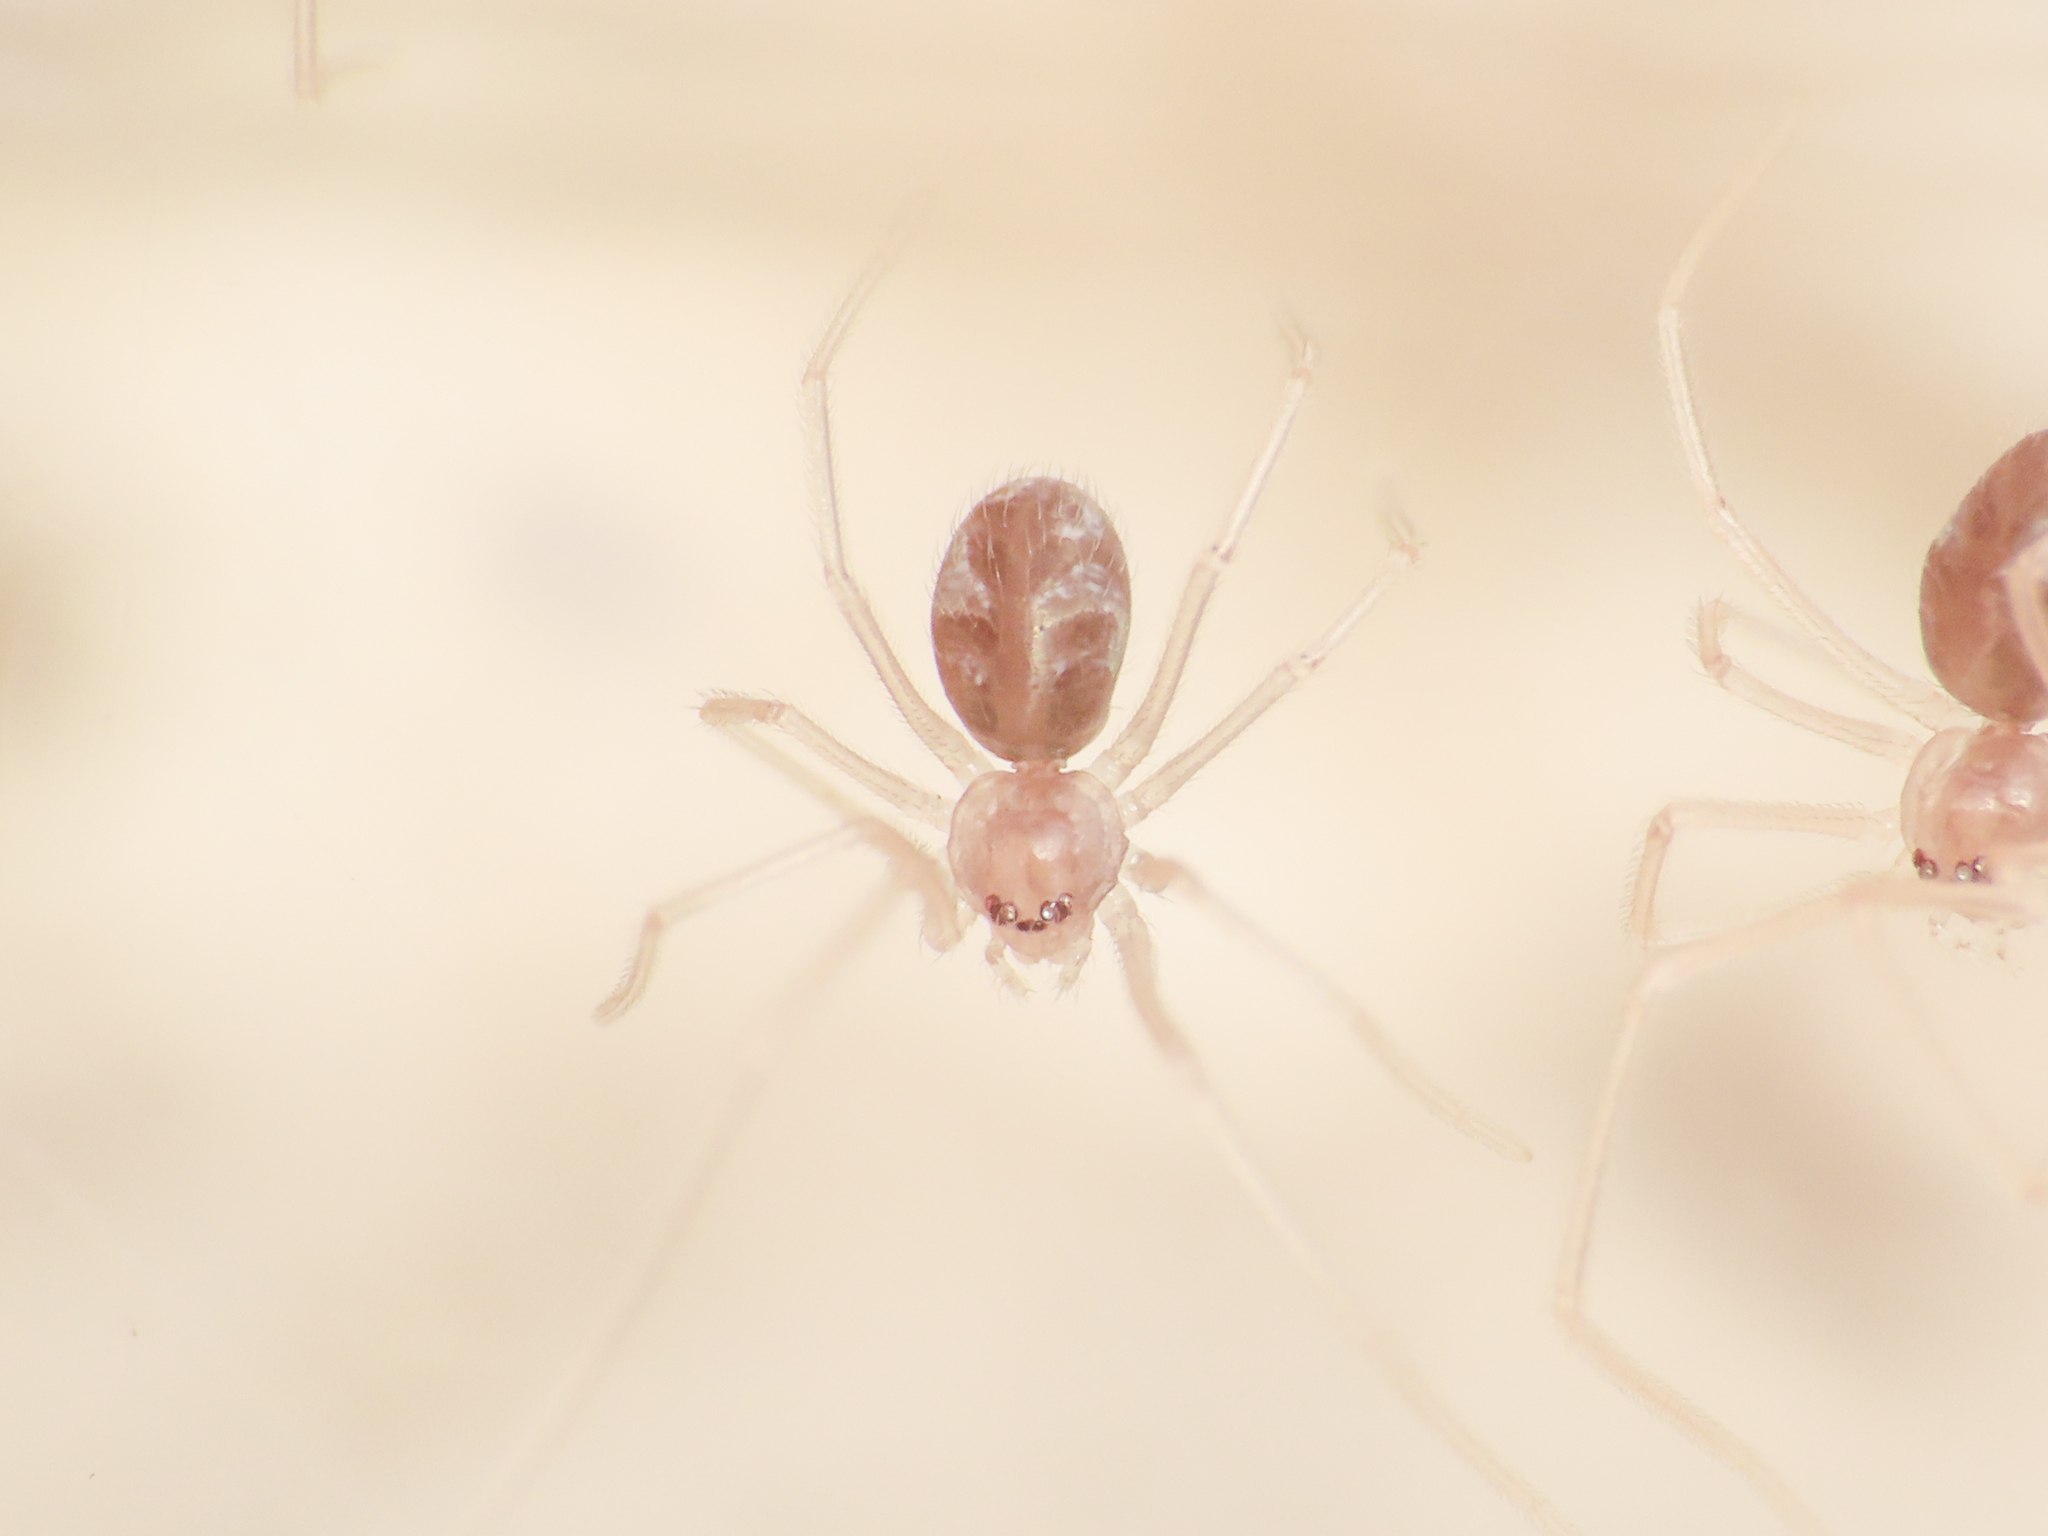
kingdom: Animalia
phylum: Arthropoda
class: Arachnida
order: Araneae
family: Pholcidae
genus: Holocnemus
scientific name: Holocnemus pluchei
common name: Marbled cellar spider
